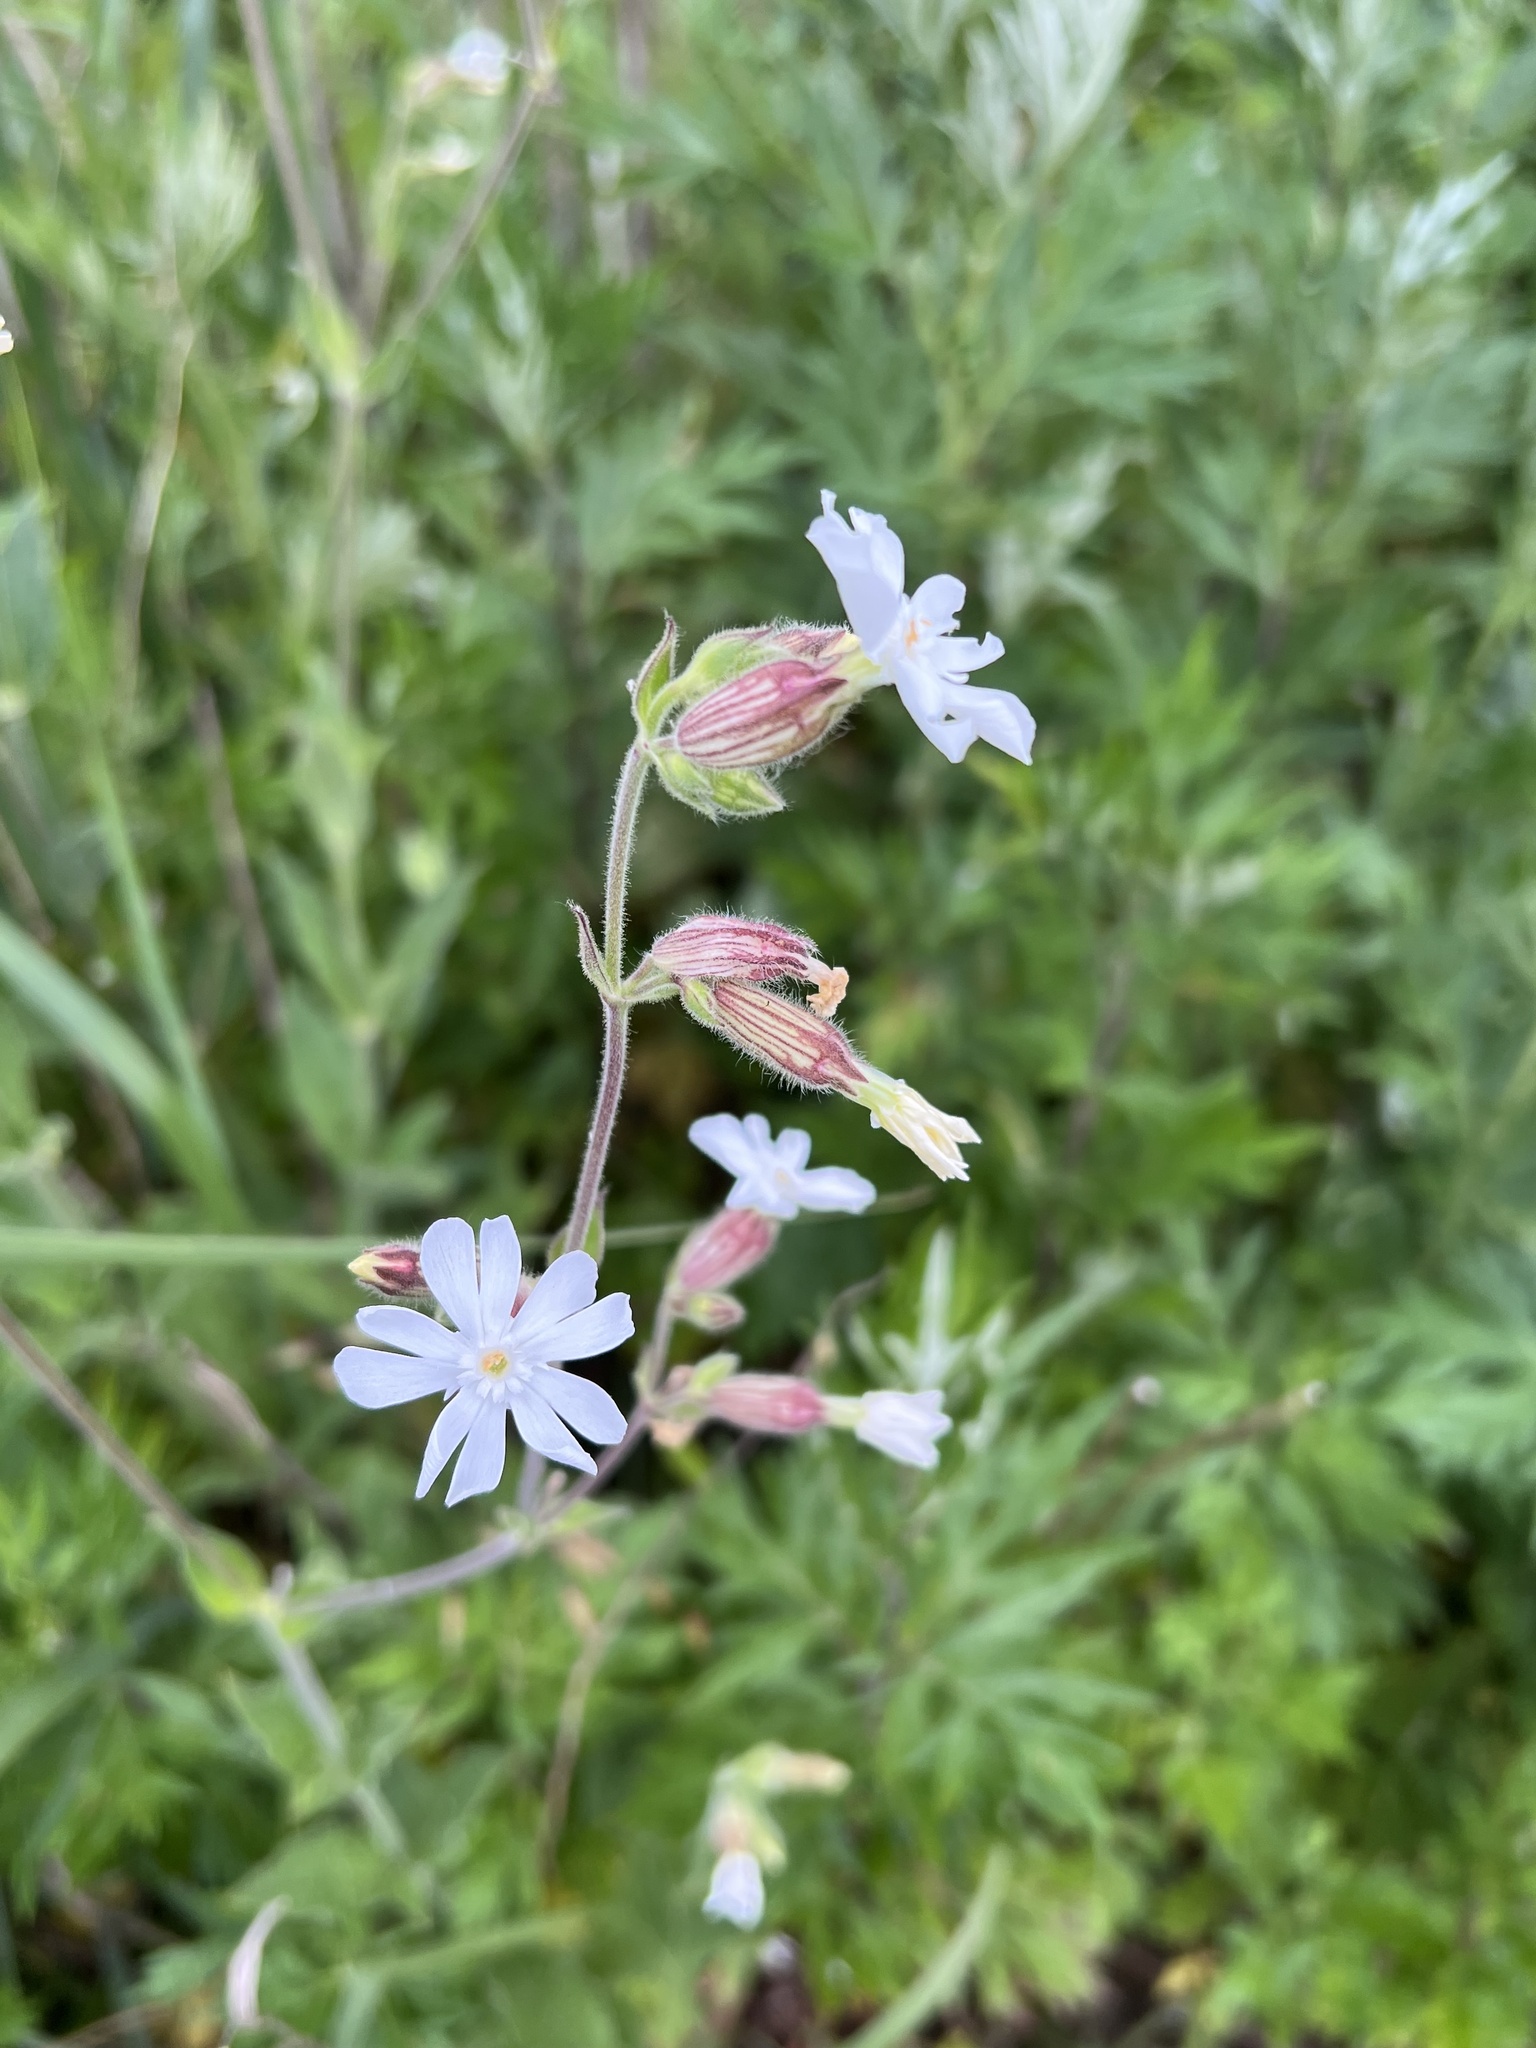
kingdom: Plantae
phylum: Tracheophyta
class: Magnoliopsida
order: Caryophyllales
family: Caryophyllaceae
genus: Silene
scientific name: Silene latifolia
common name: White campion
